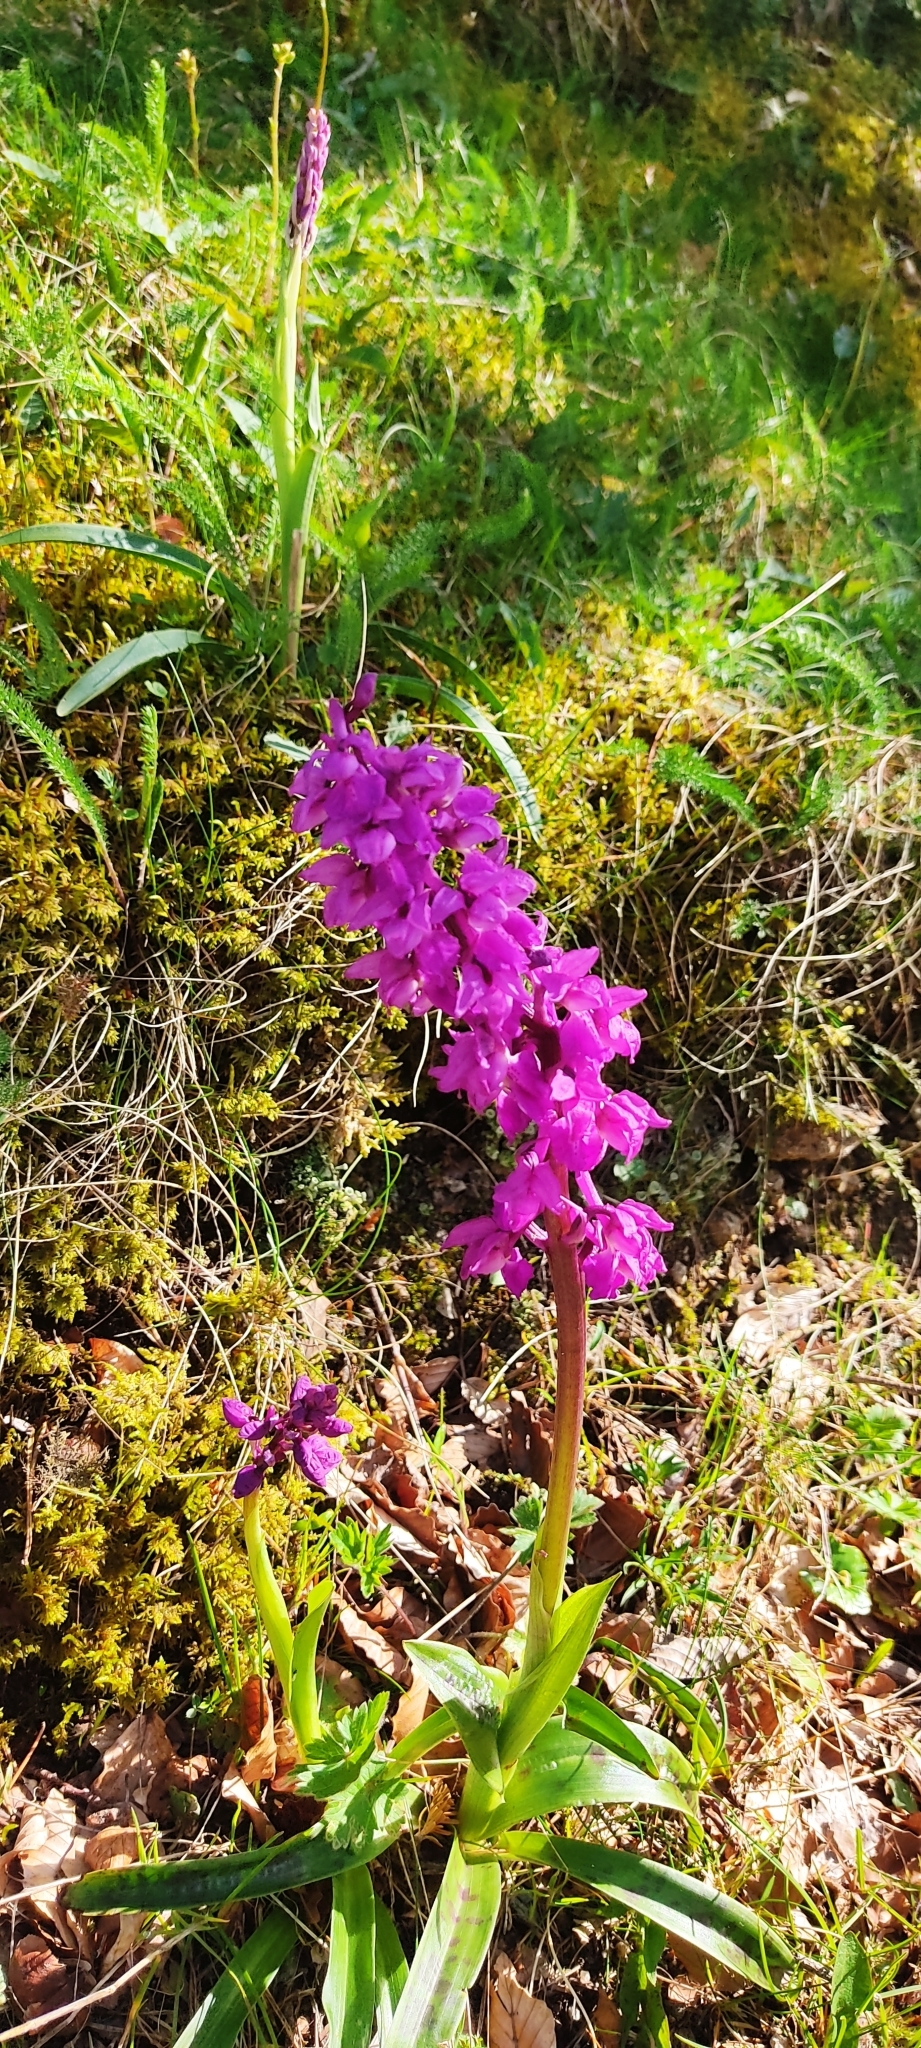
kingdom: Plantae
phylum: Tracheophyta
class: Liliopsida
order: Asparagales
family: Orchidaceae
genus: Orchis
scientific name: Orchis mascula
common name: Early-purple orchid
